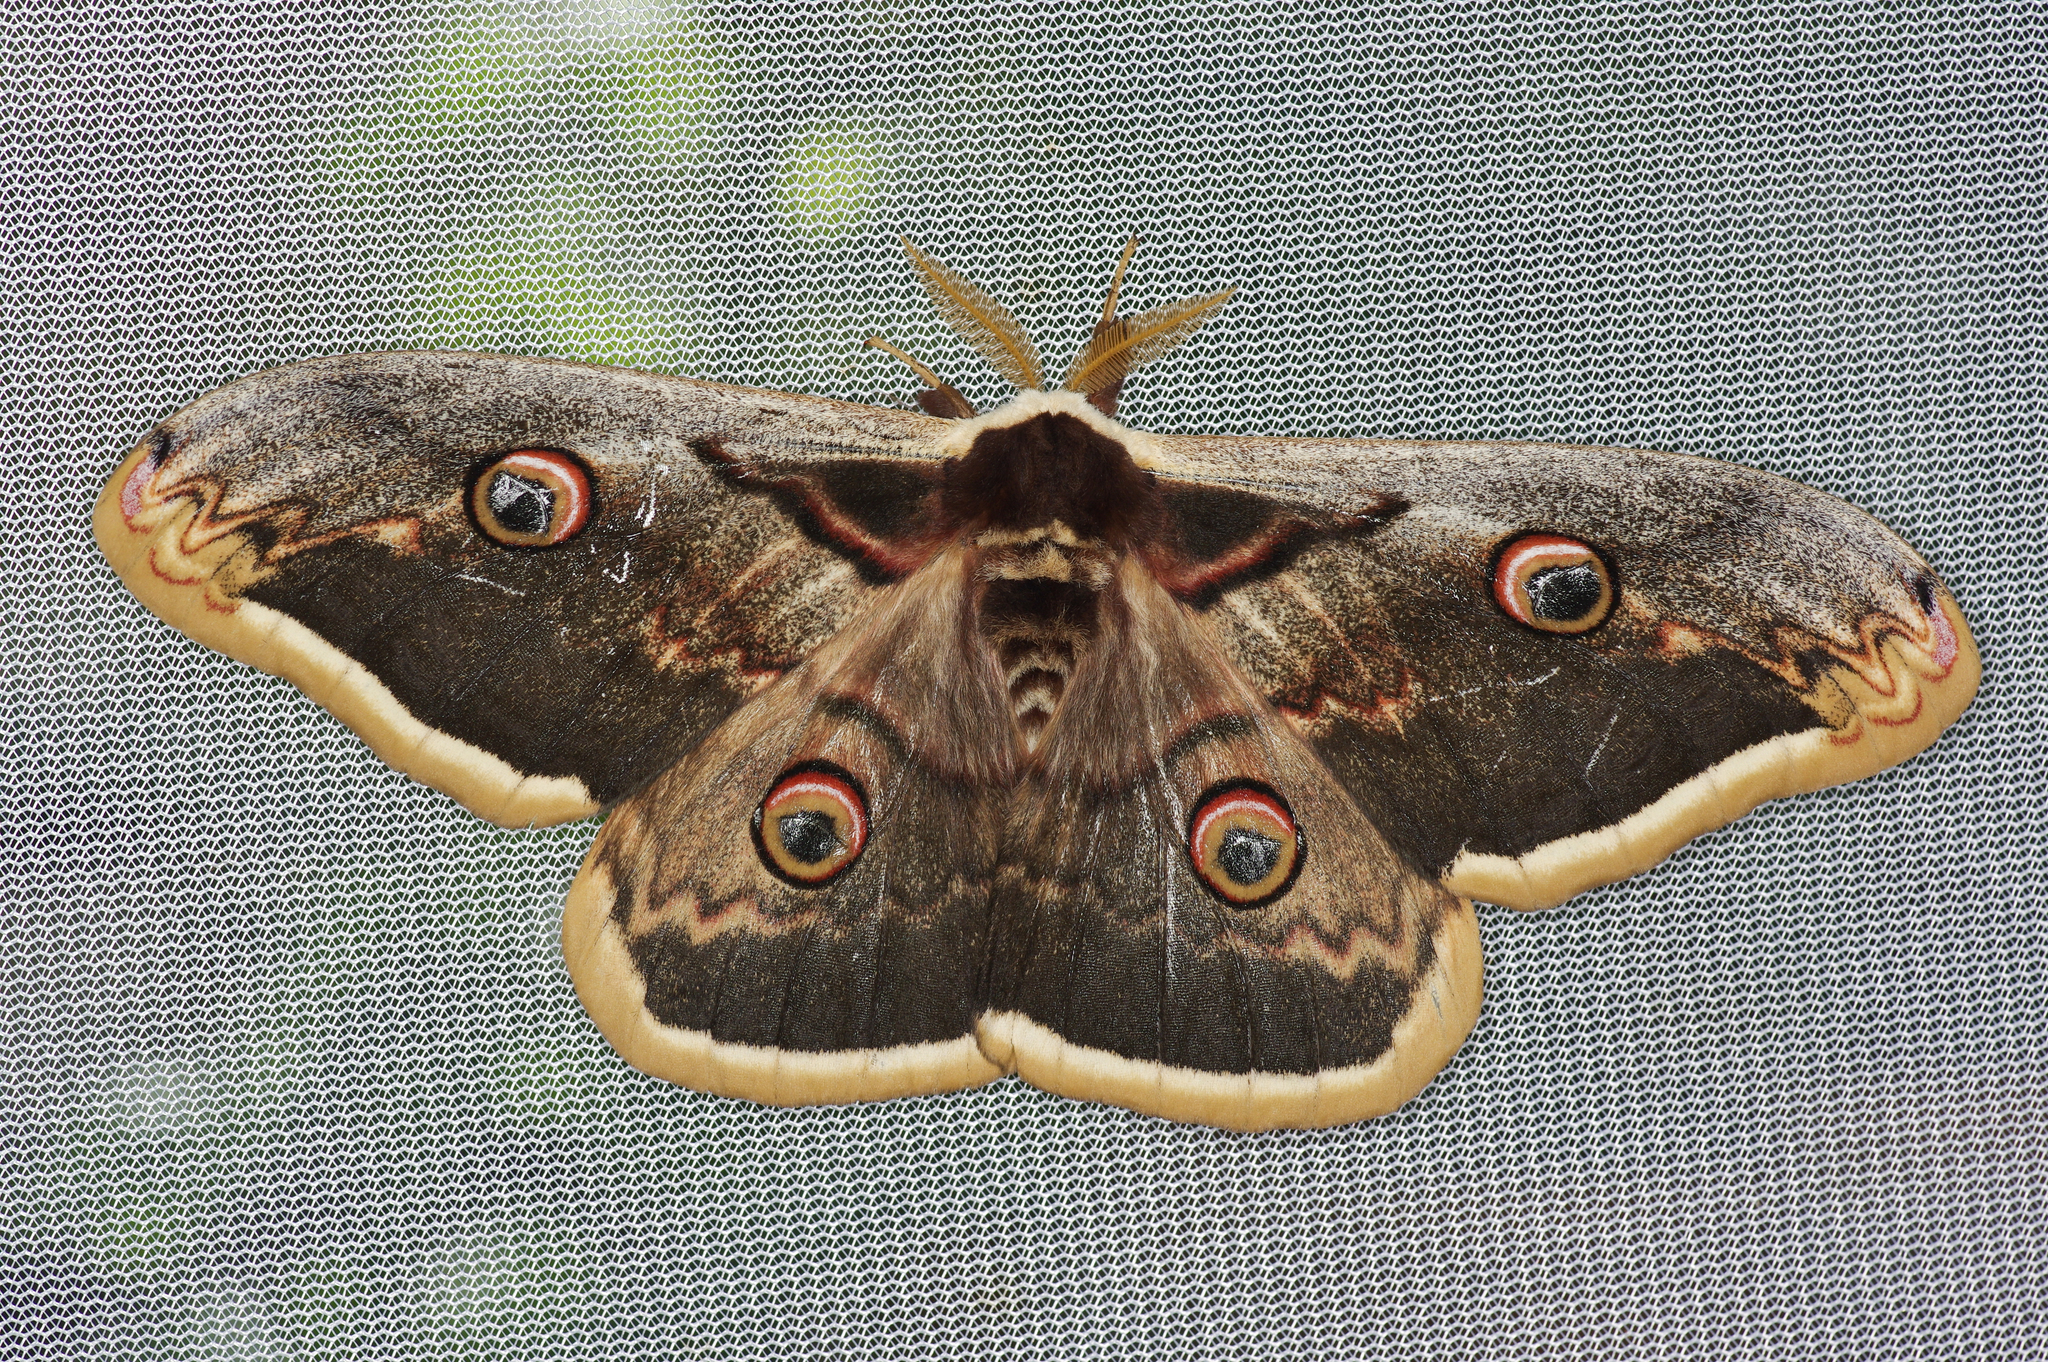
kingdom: Animalia
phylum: Arthropoda
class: Insecta
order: Lepidoptera
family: Saturniidae
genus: Saturnia
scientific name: Saturnia pyri
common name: Great peacock moth
